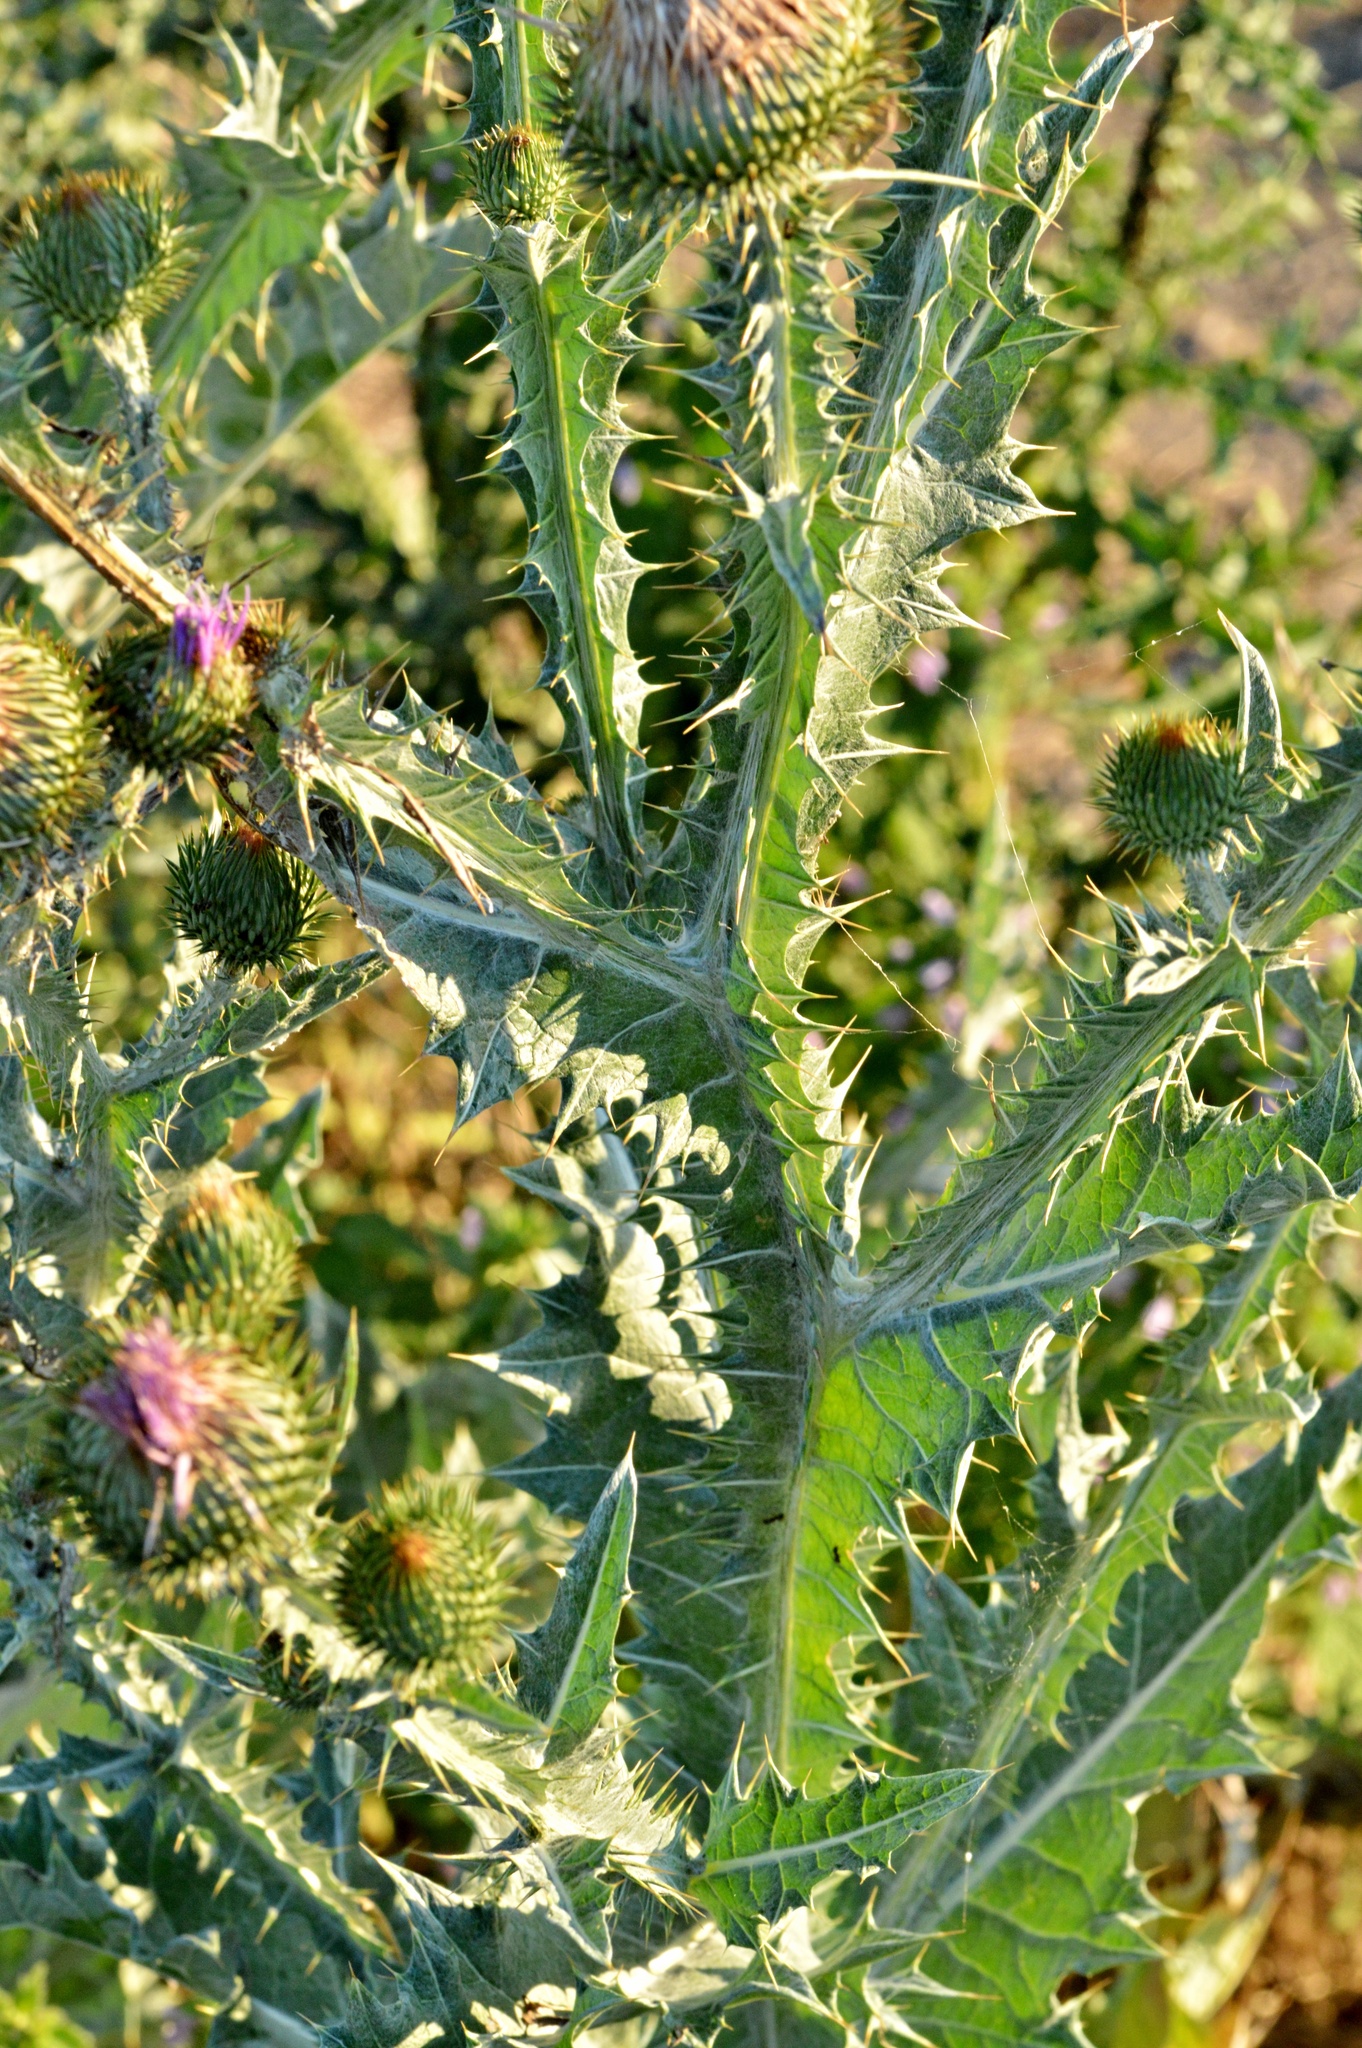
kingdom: Plantae
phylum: Tracheophyta
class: Magnoliopsida
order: Asterales
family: Asteraceae
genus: Onopordum
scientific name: Onopordum acanthium
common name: Scotch thistle
